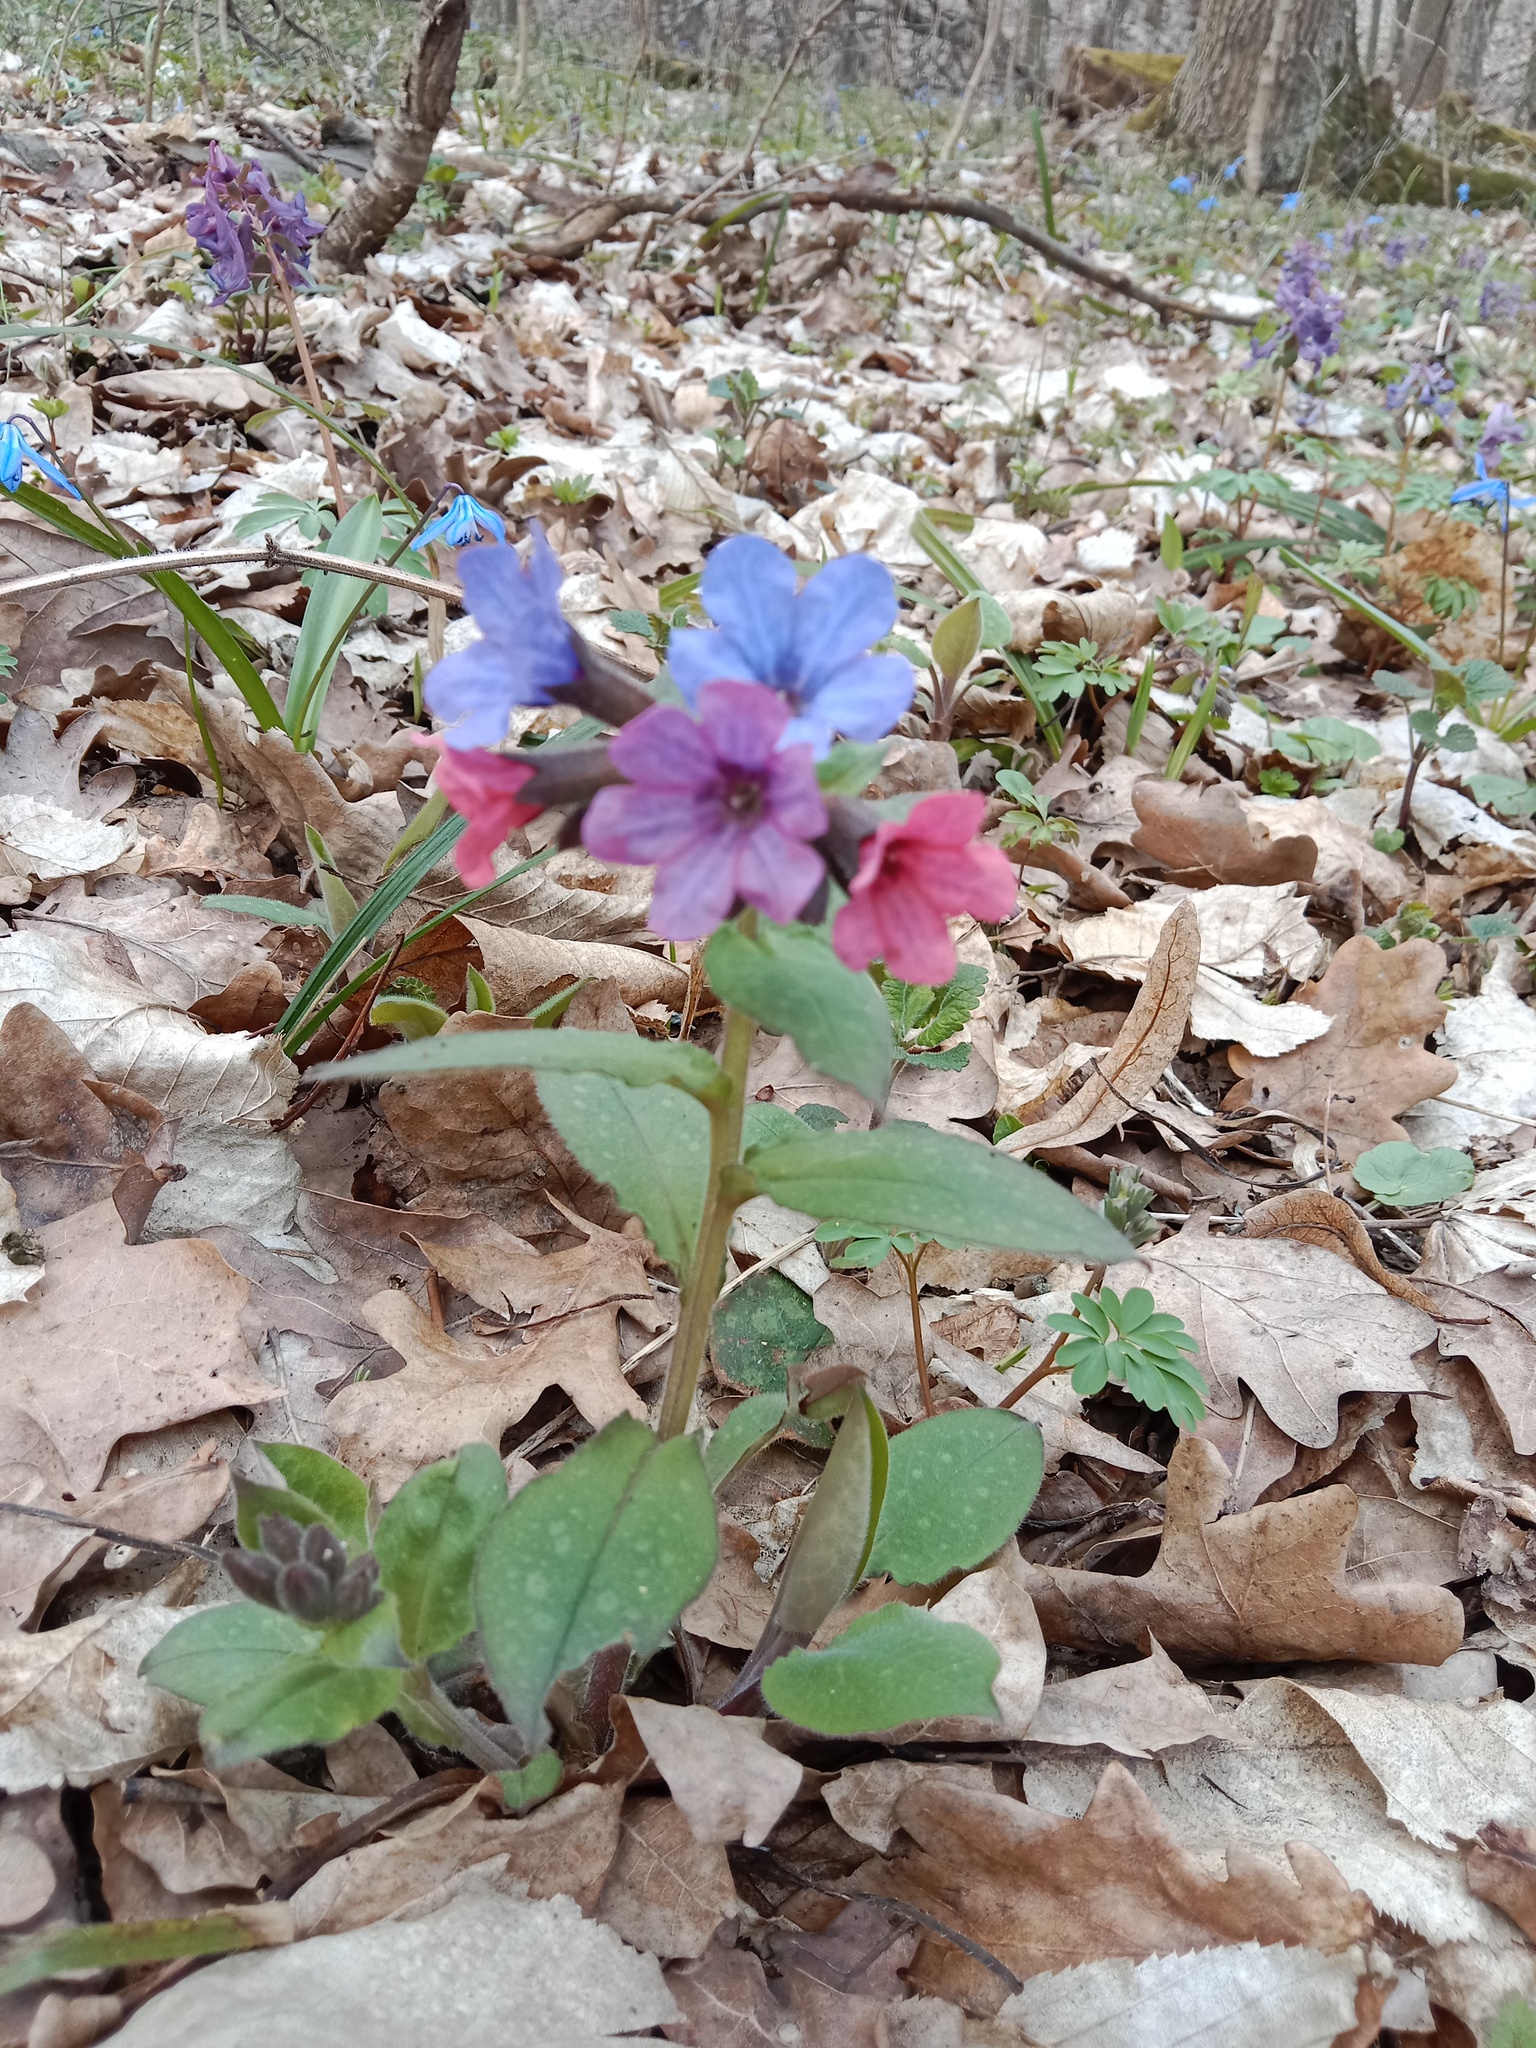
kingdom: Plantae
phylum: Tracheophyta
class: Magnoliopsida
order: Boraginales
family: Boraginaceae
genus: Pulmonaria
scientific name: Pulmonaria obscura
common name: Suffolk lungwort
